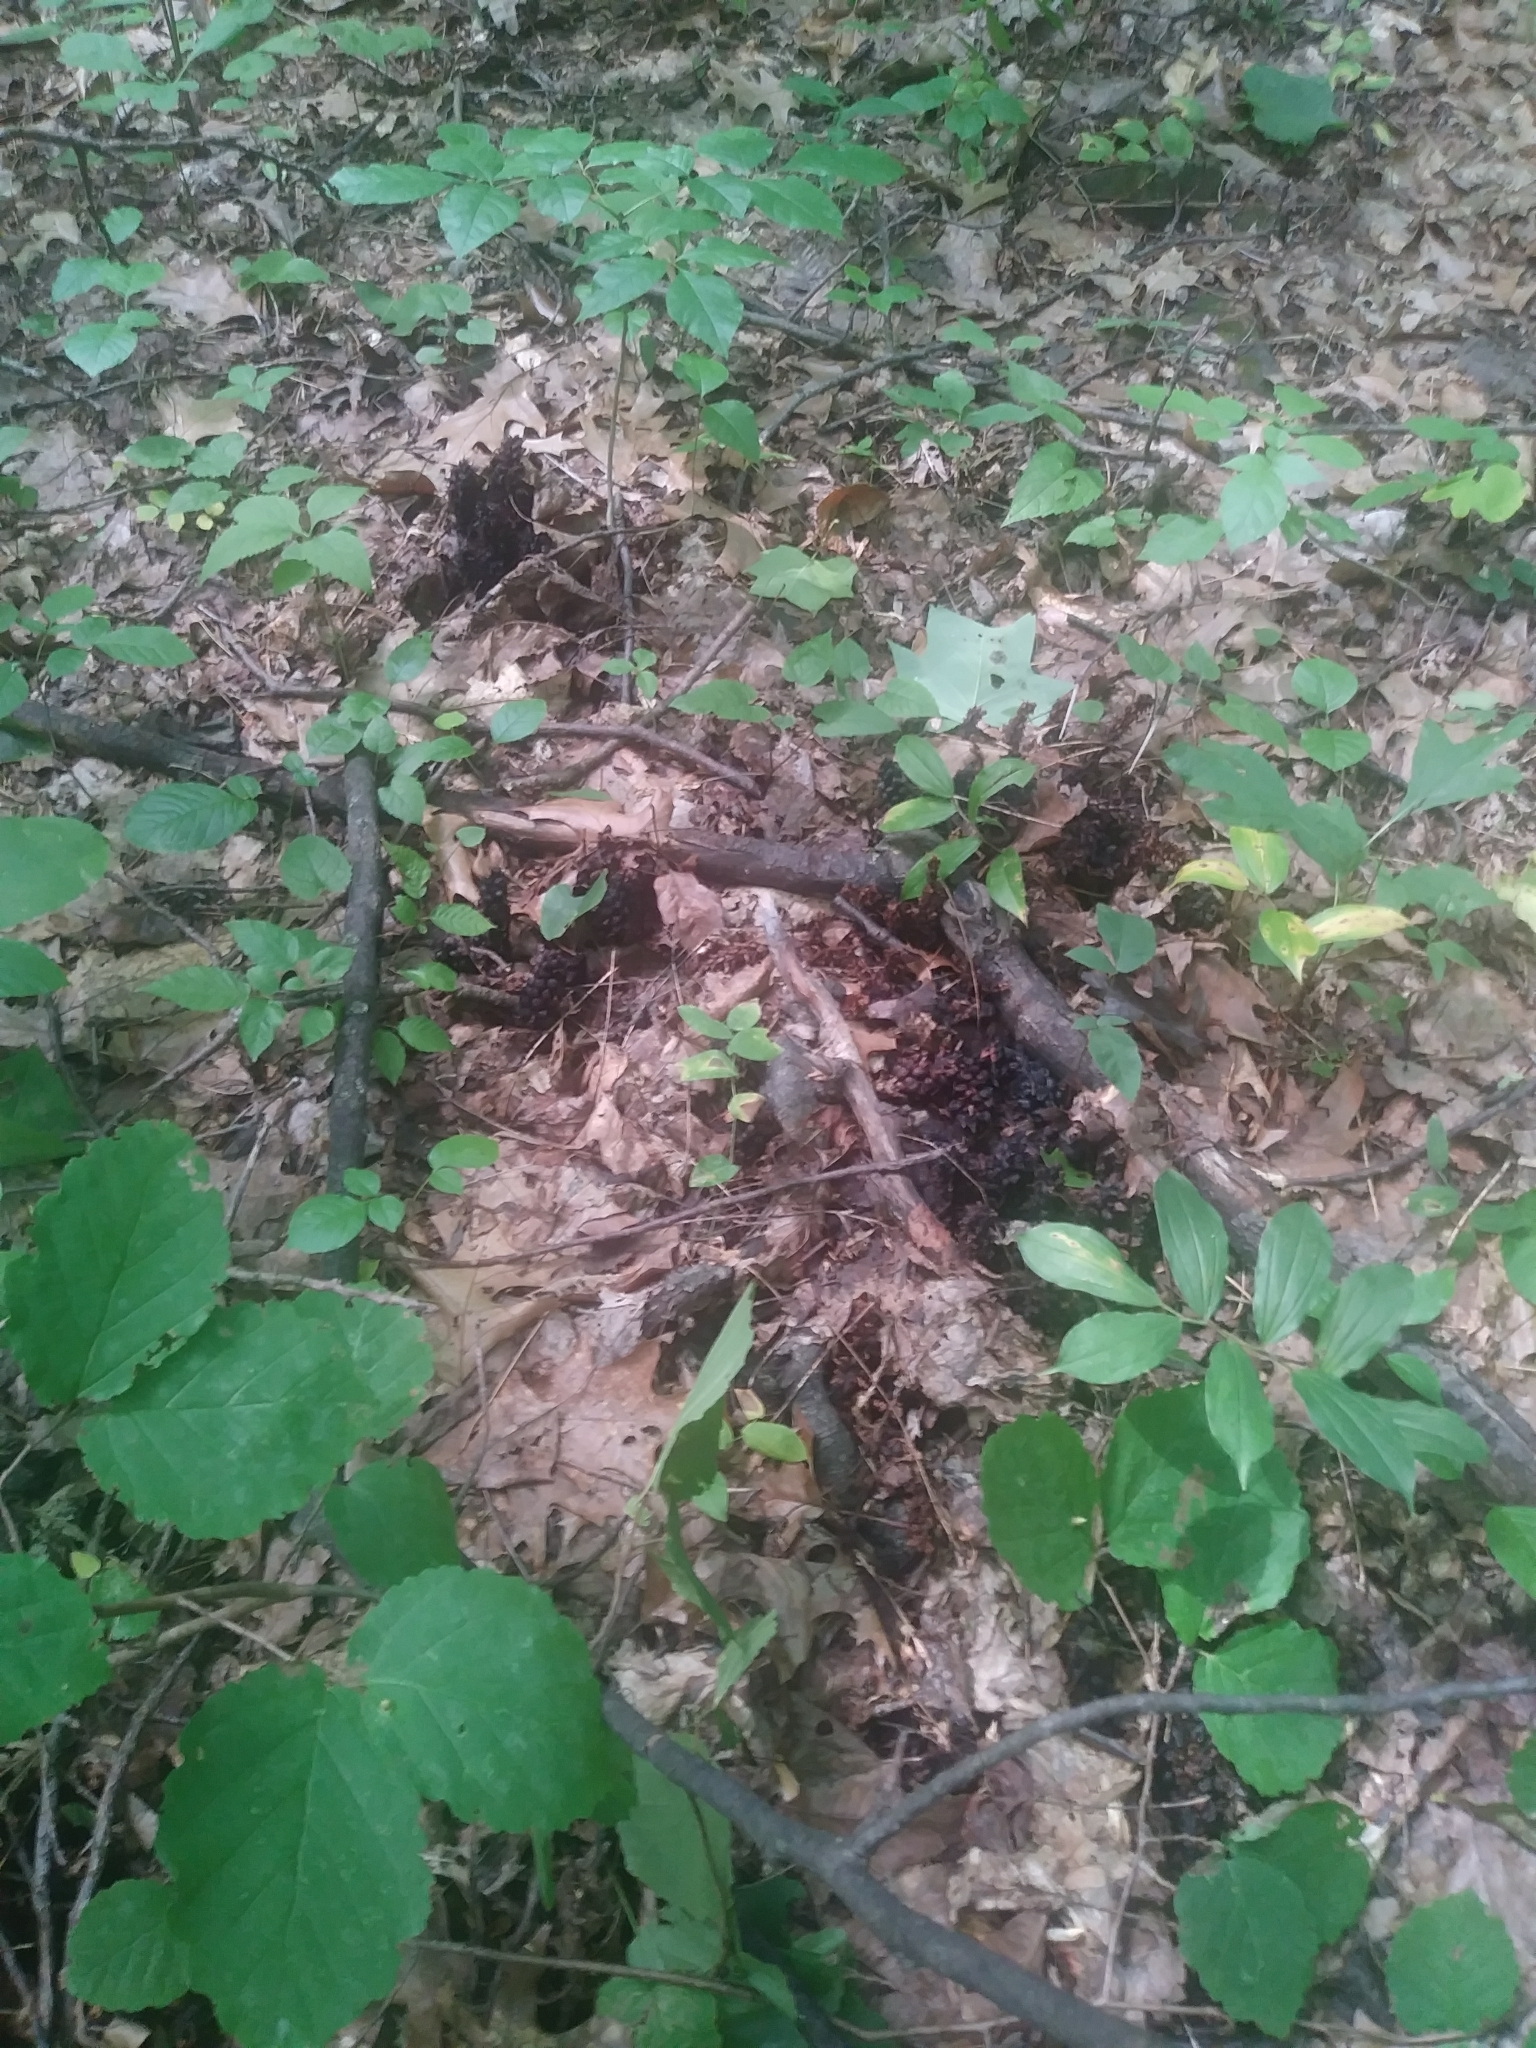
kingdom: Plantae
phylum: Tracheophyta
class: Magnoliopsida
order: Lamiales
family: Orobanchaceae
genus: Conopholis
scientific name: Conopholis americana
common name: American cancer-root
